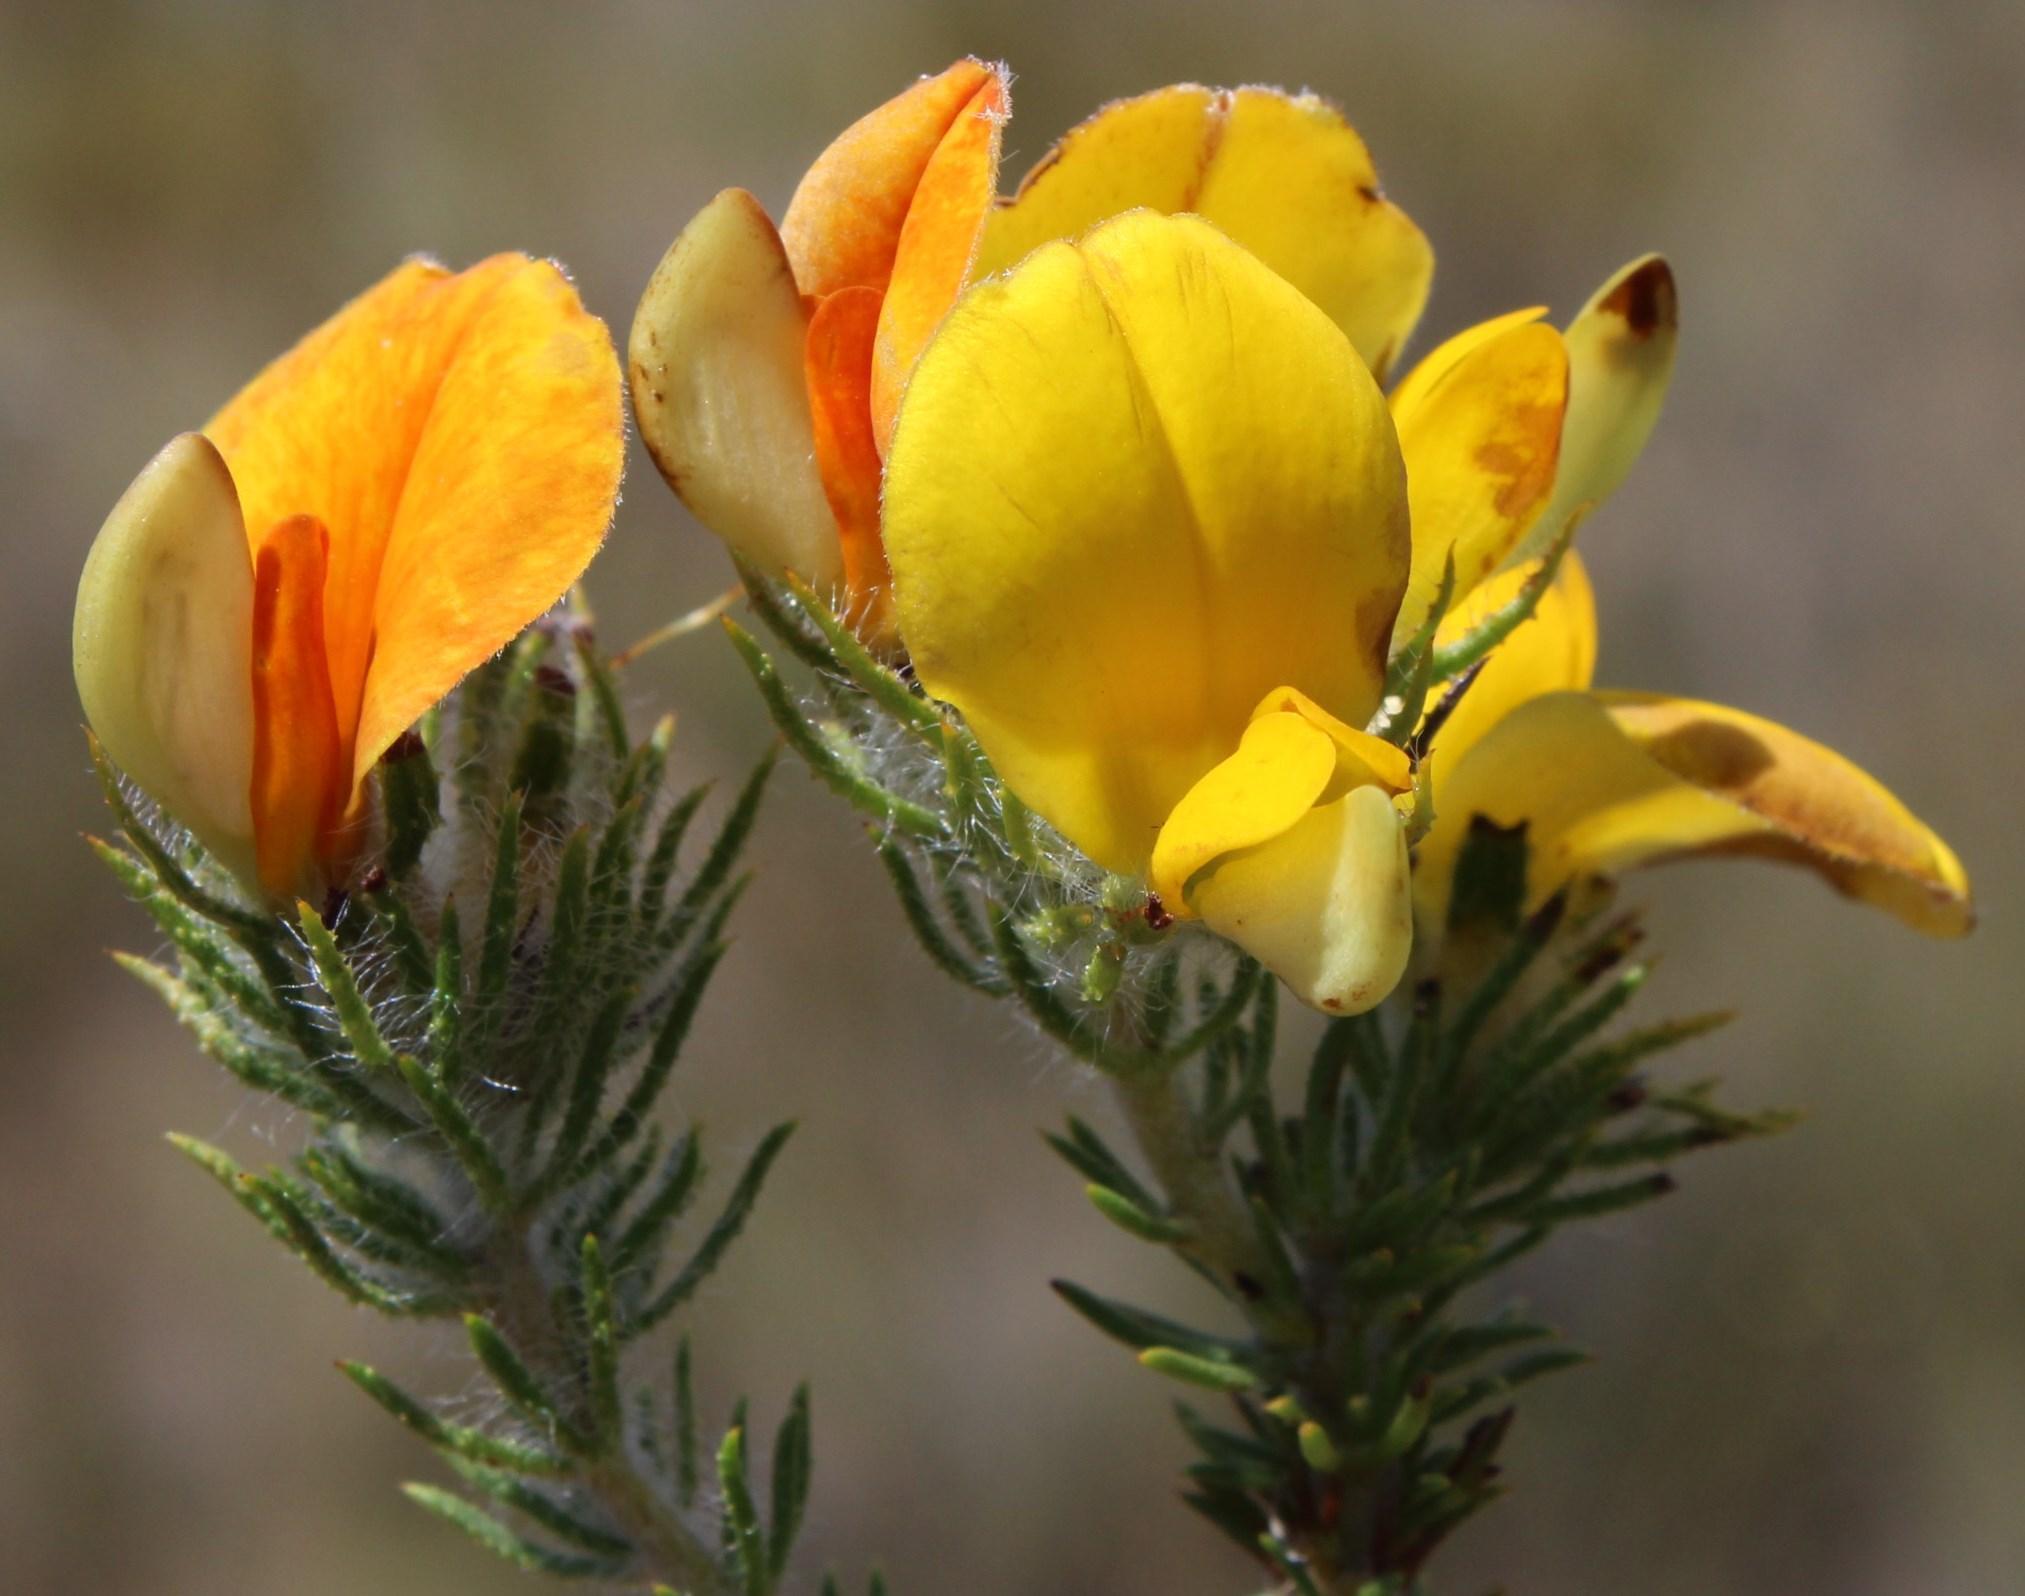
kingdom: Plantae
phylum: Tracheophyta
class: Magnoliopsida
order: Fabales
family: Fabaceae
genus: Aspalathus
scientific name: Aspalathus ciliaris
